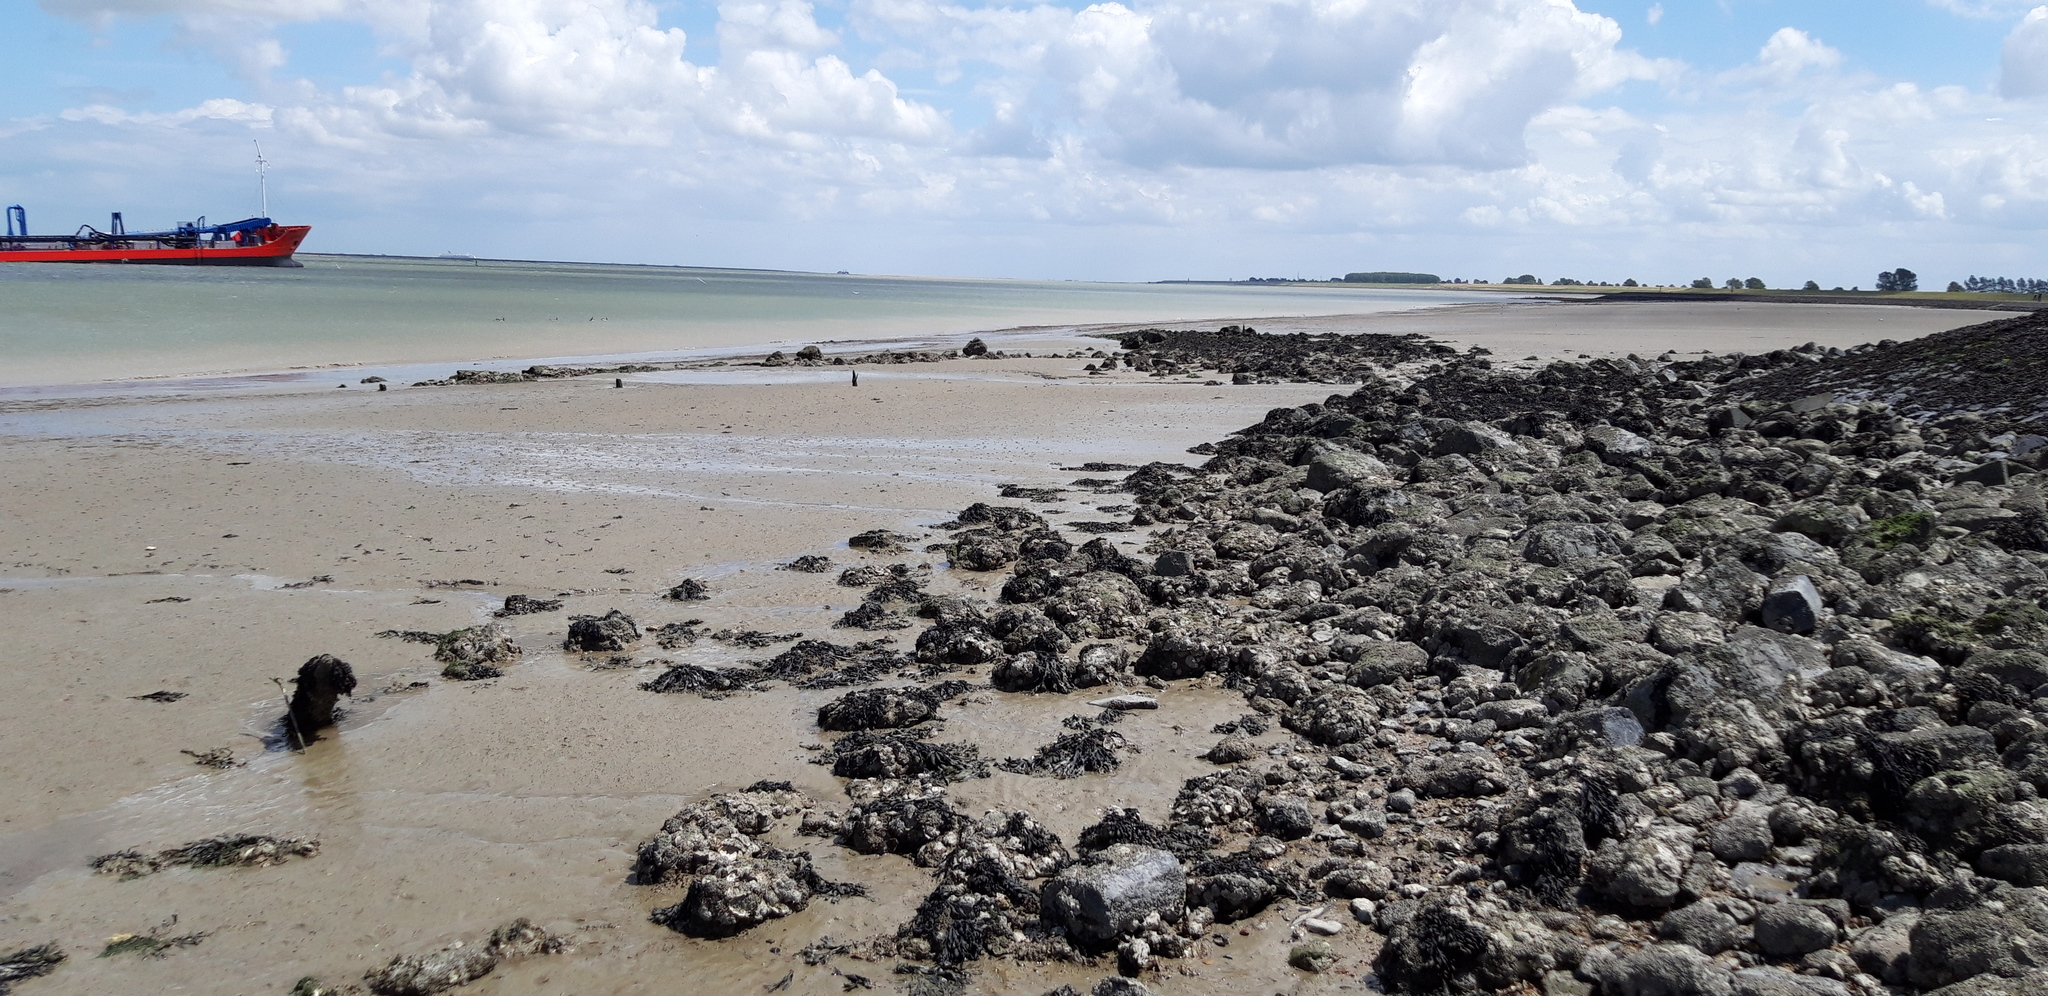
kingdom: Animalia
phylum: Mollusca
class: Bivalvia
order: Ostreida
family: Ostreidae
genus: Magallana
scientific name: Magallana gigas
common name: Pacific oyster
